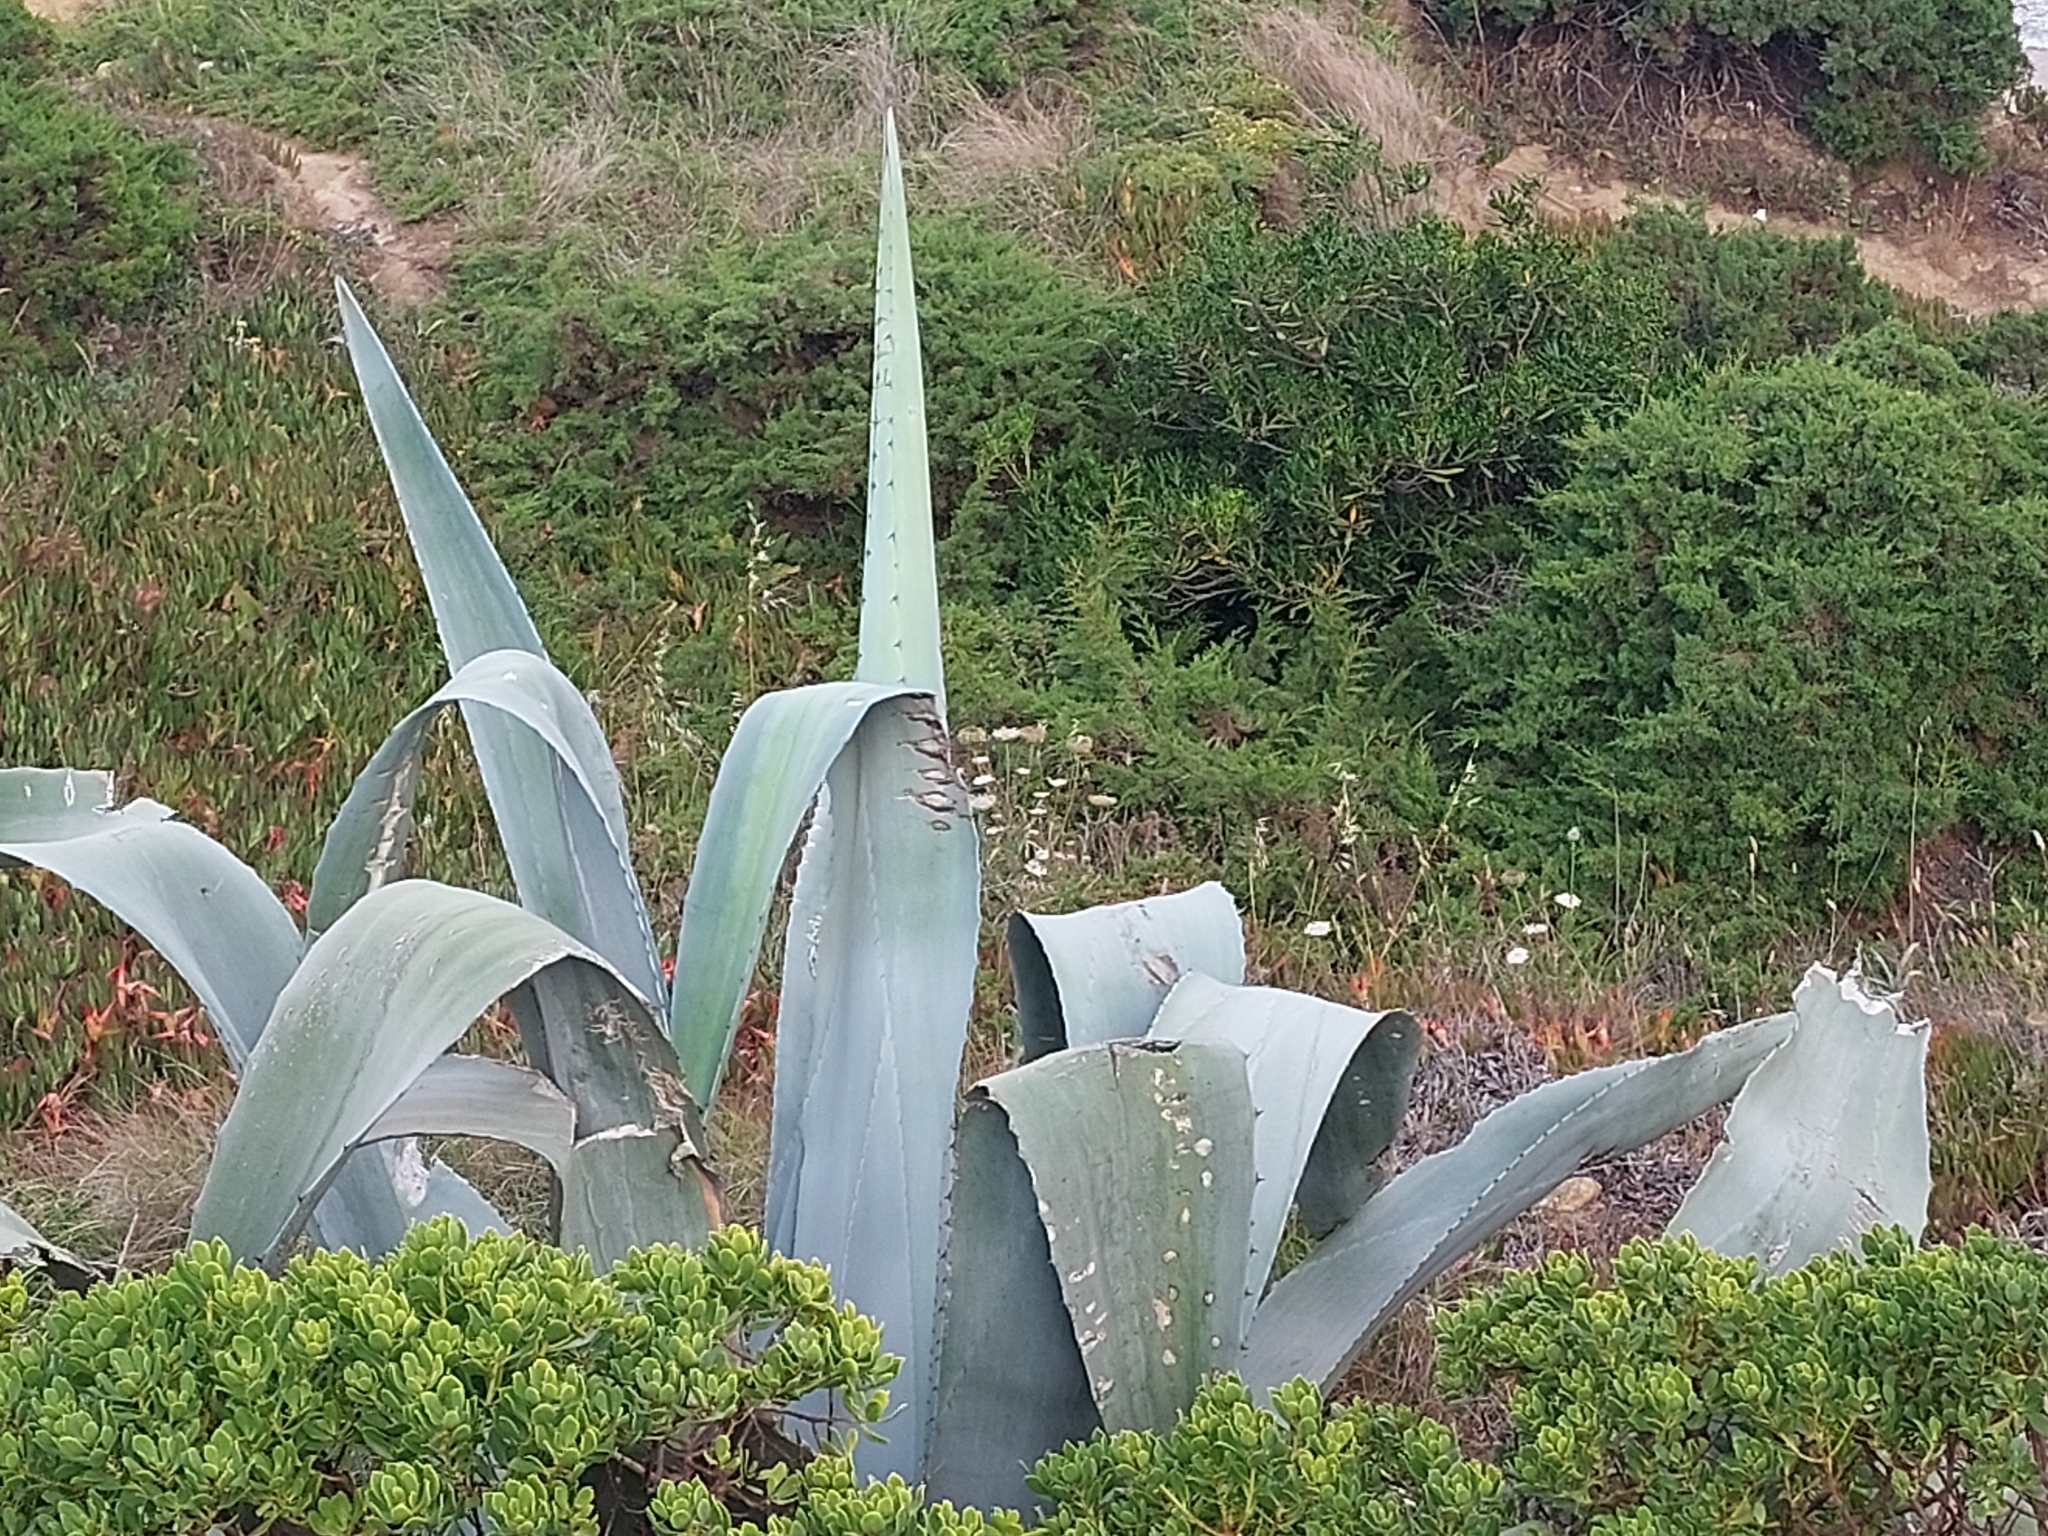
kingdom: Plantae
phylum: Tracheophyta
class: Liliopsida
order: Asparagales
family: Asparagaceae
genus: Agave
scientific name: Agave americana
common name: Centuryplant
